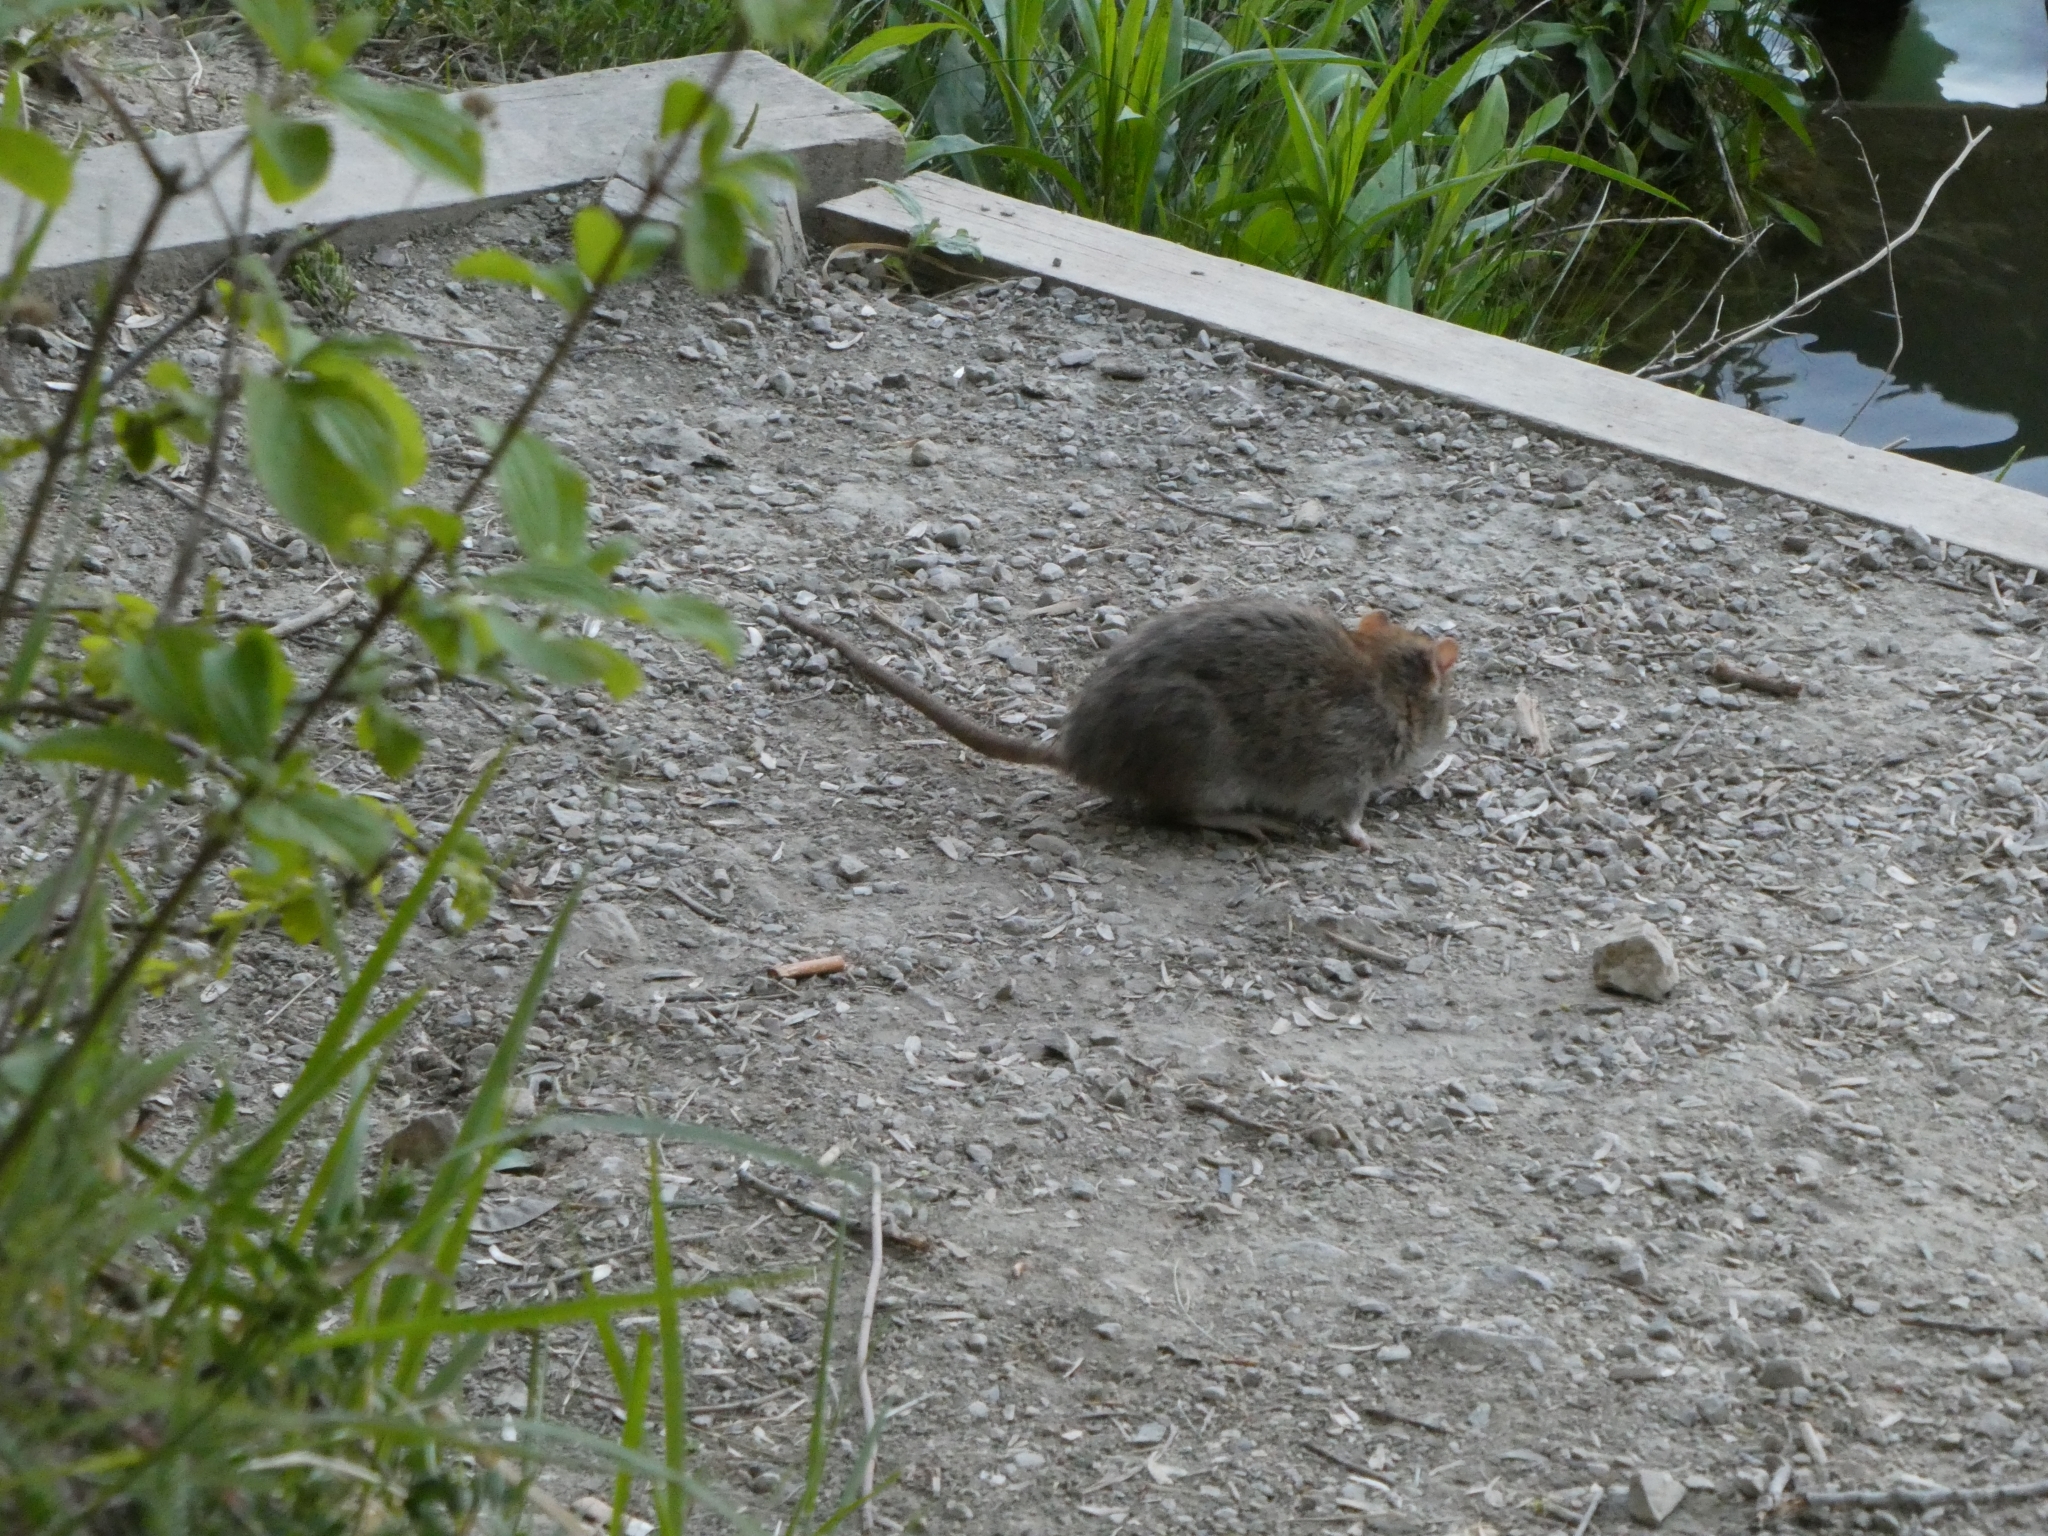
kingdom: Animalia
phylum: Chordata
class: Mammalia
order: Rodentia
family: Muridae
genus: Rattus
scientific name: Rattus norvegicus
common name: Brown rat
